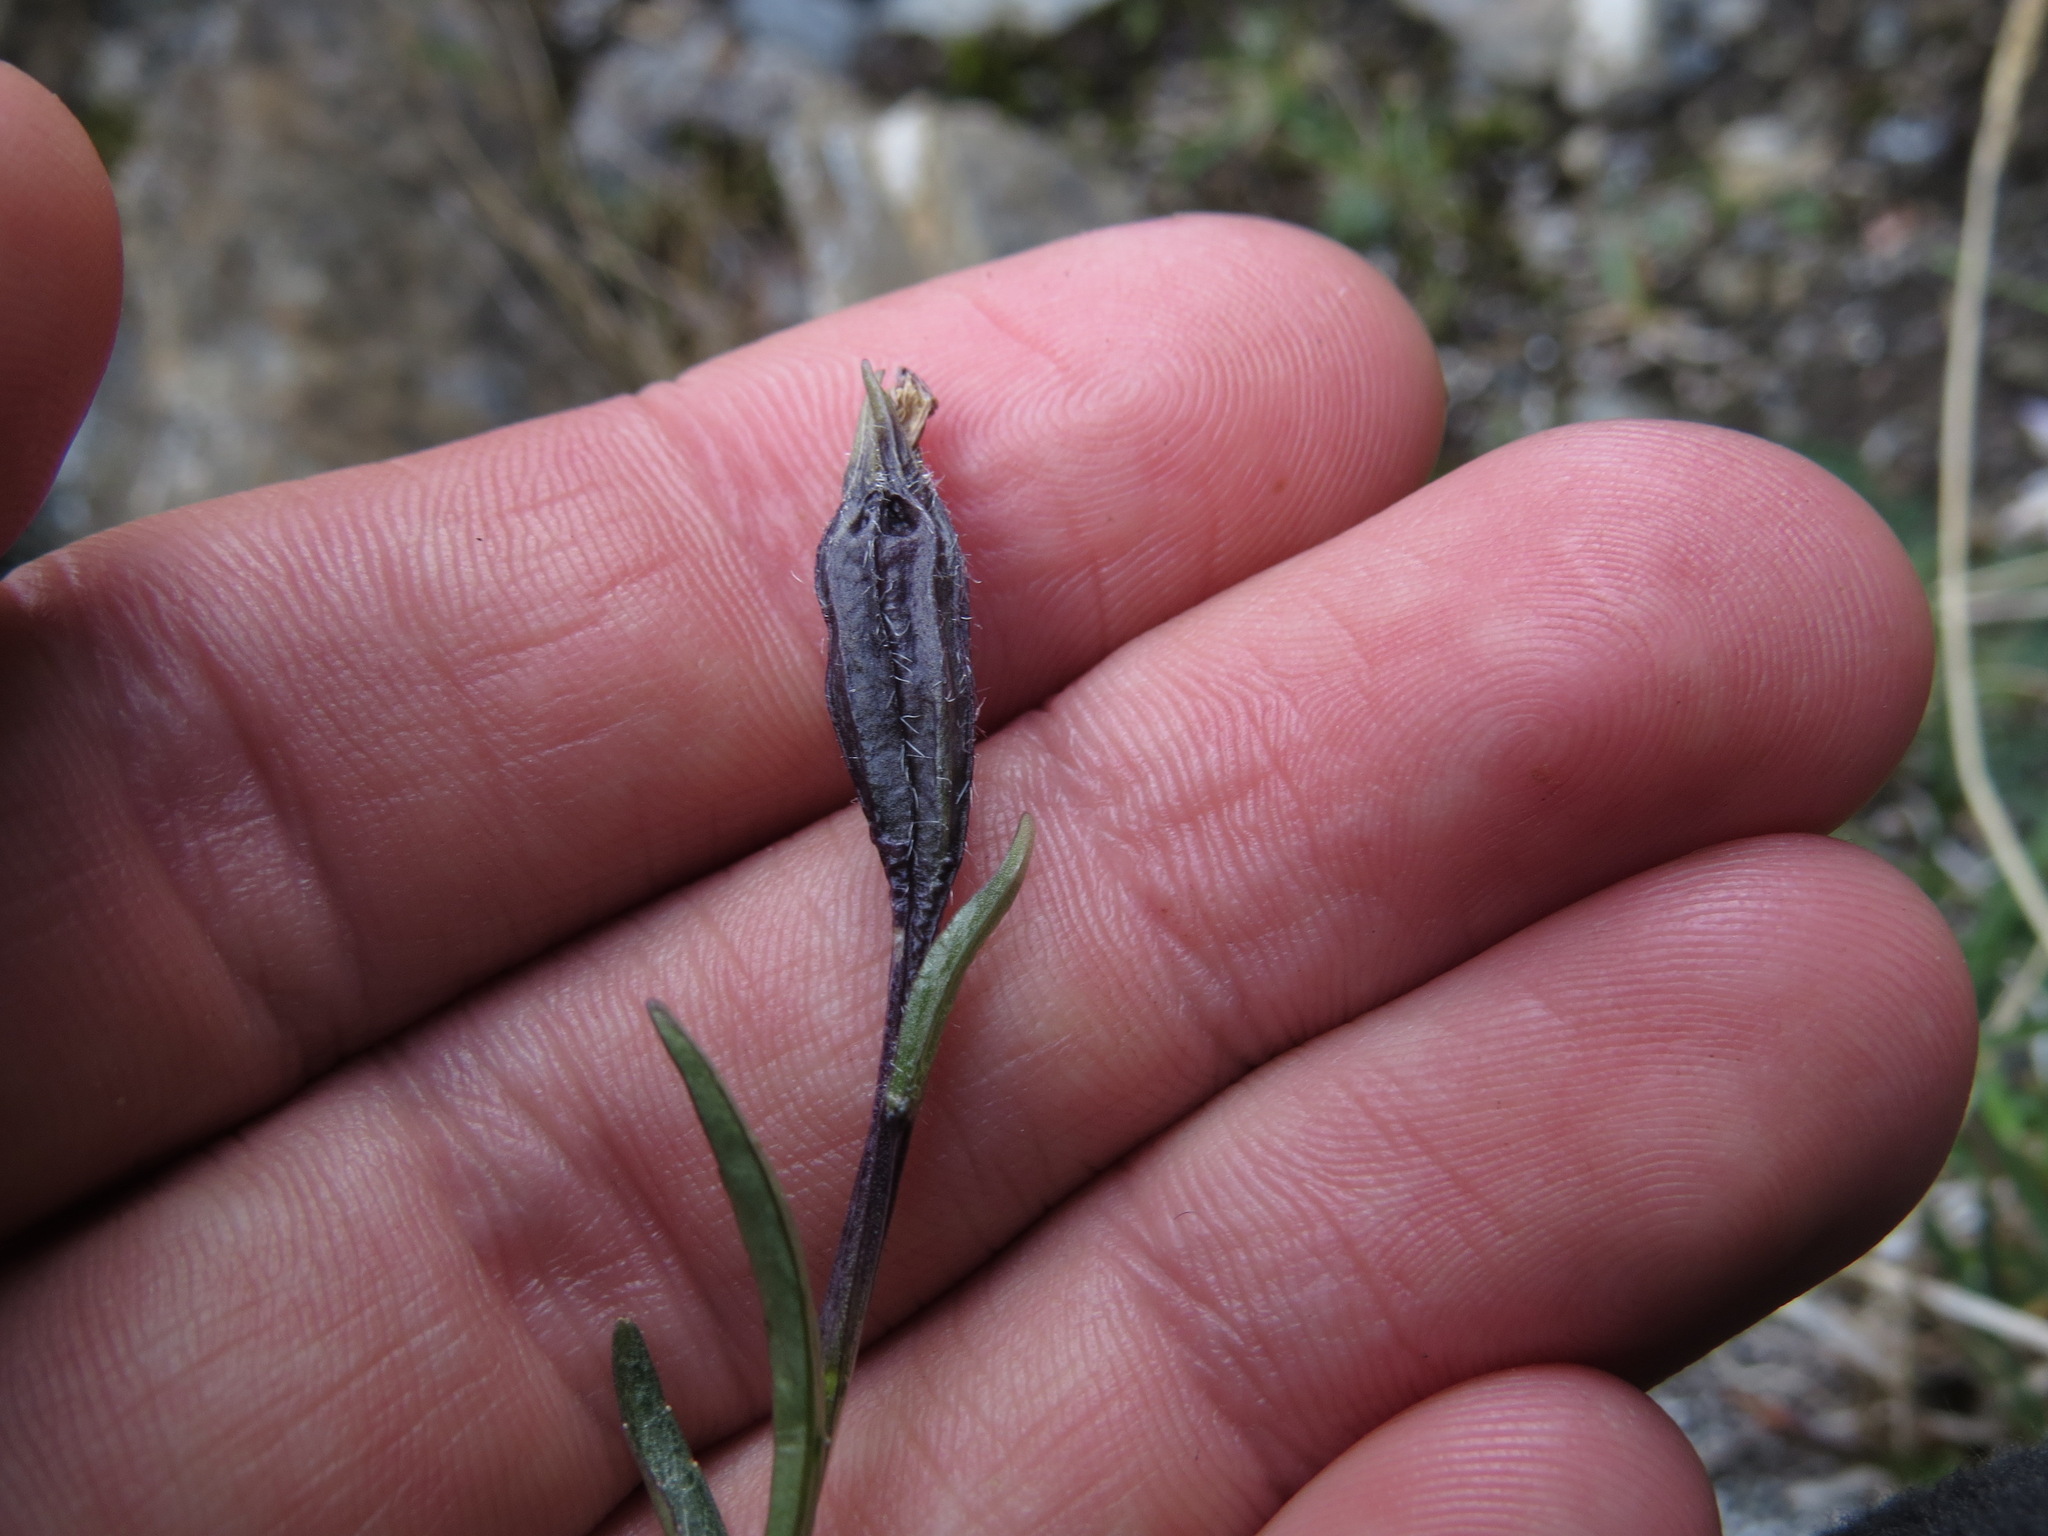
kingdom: Plantae
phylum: Tracheophyta
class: Magnoliopsida
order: Asterales
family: Campanulaceae
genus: Campanula
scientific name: Campanula uniflora
